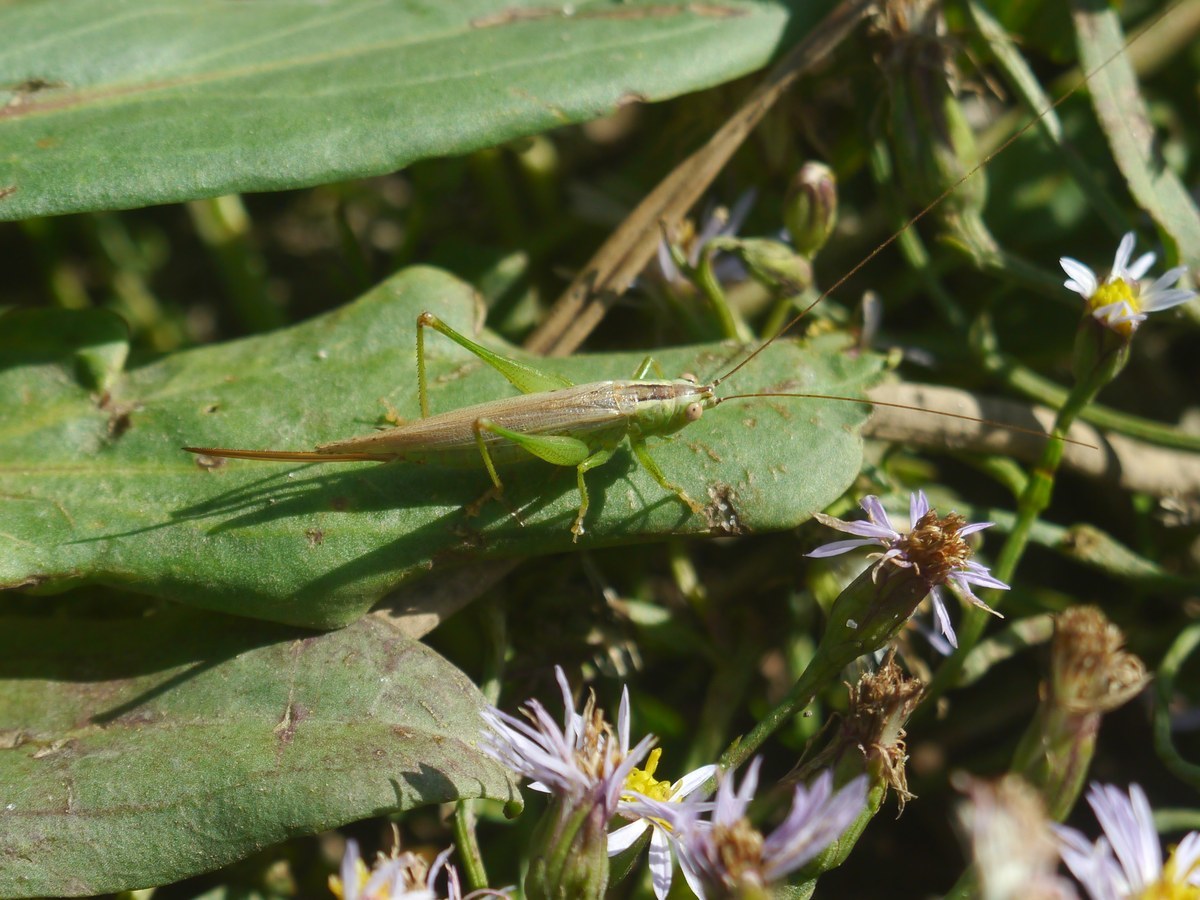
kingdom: Animalia
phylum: Arthropoda
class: Insecta
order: Orthoptera
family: Tettigoniidae
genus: Conocephalus
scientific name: Conocephalus fuscus
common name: Long-winged conehead
